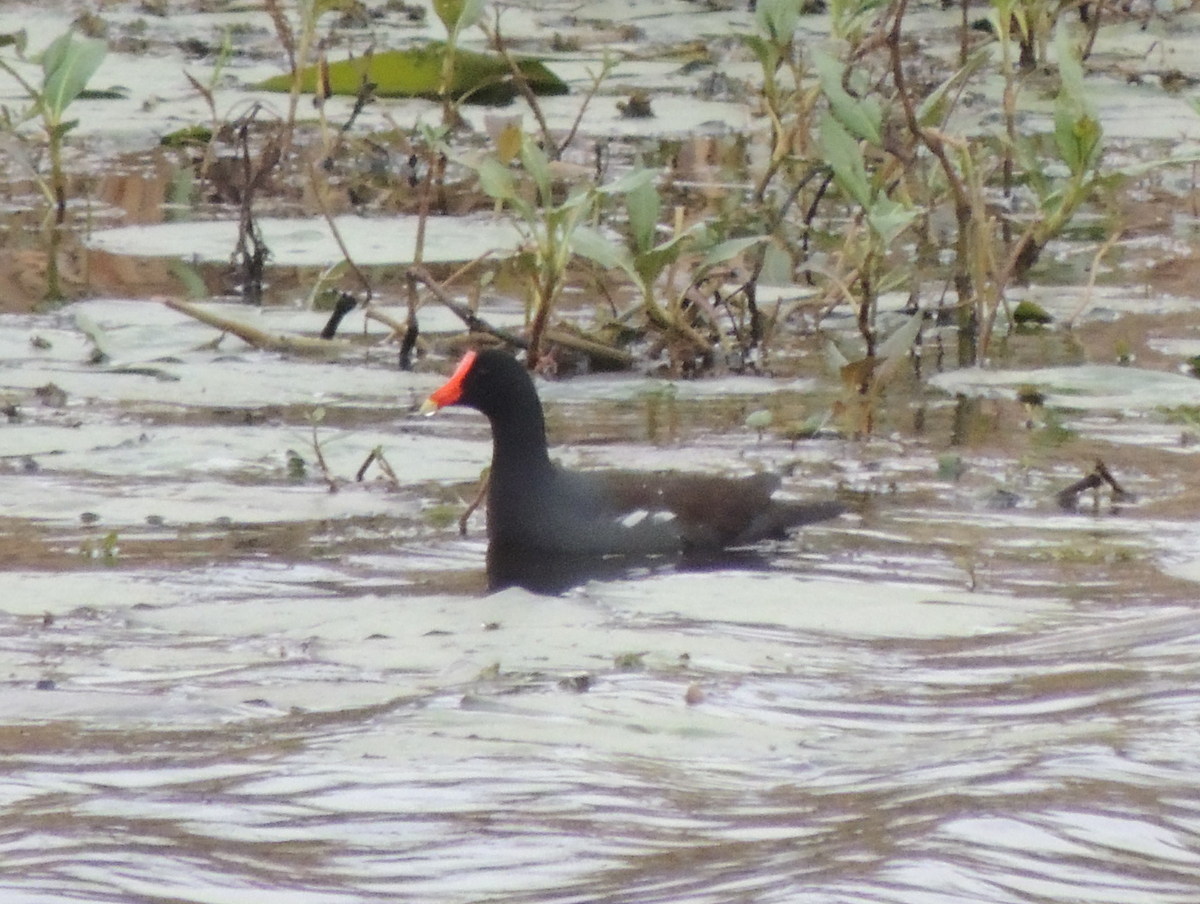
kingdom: Animalia
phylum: Chordata
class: Aves
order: Gruiformes
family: Rallidae
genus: Gallinula
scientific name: Gallinula chloropus
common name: Common moorhen
